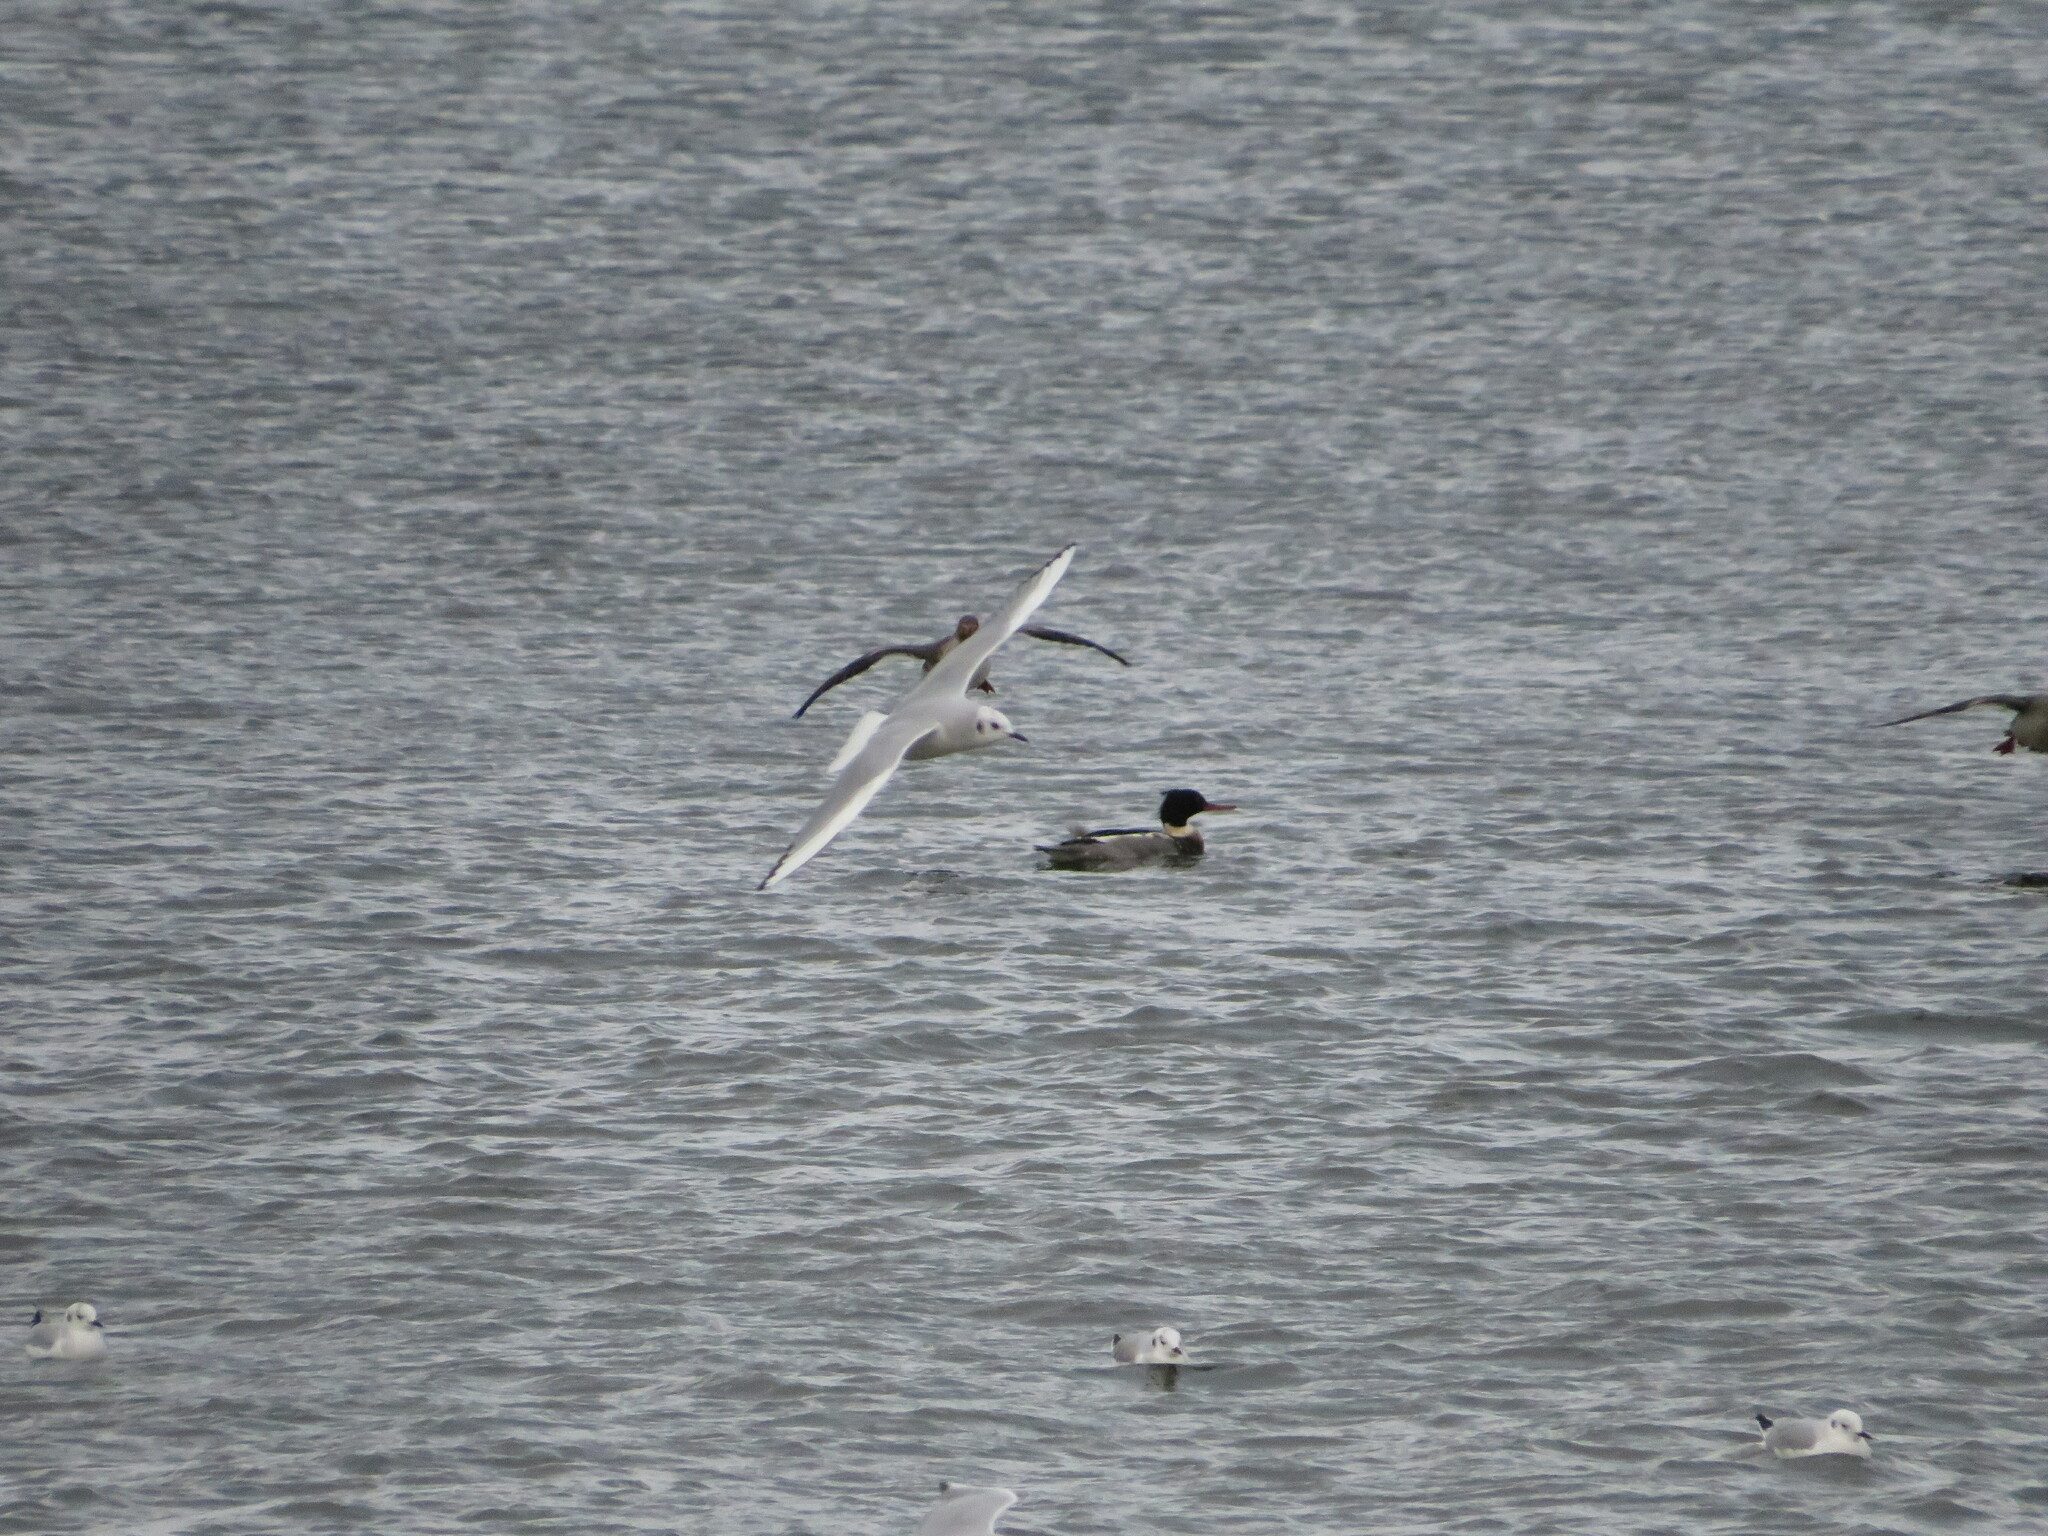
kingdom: Animalia
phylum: Chordata
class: Aves
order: Charadriiformes
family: Laridae
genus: Chroicocephalus
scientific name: Chroicocephalus philadelphia
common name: Bonaparte's gull
